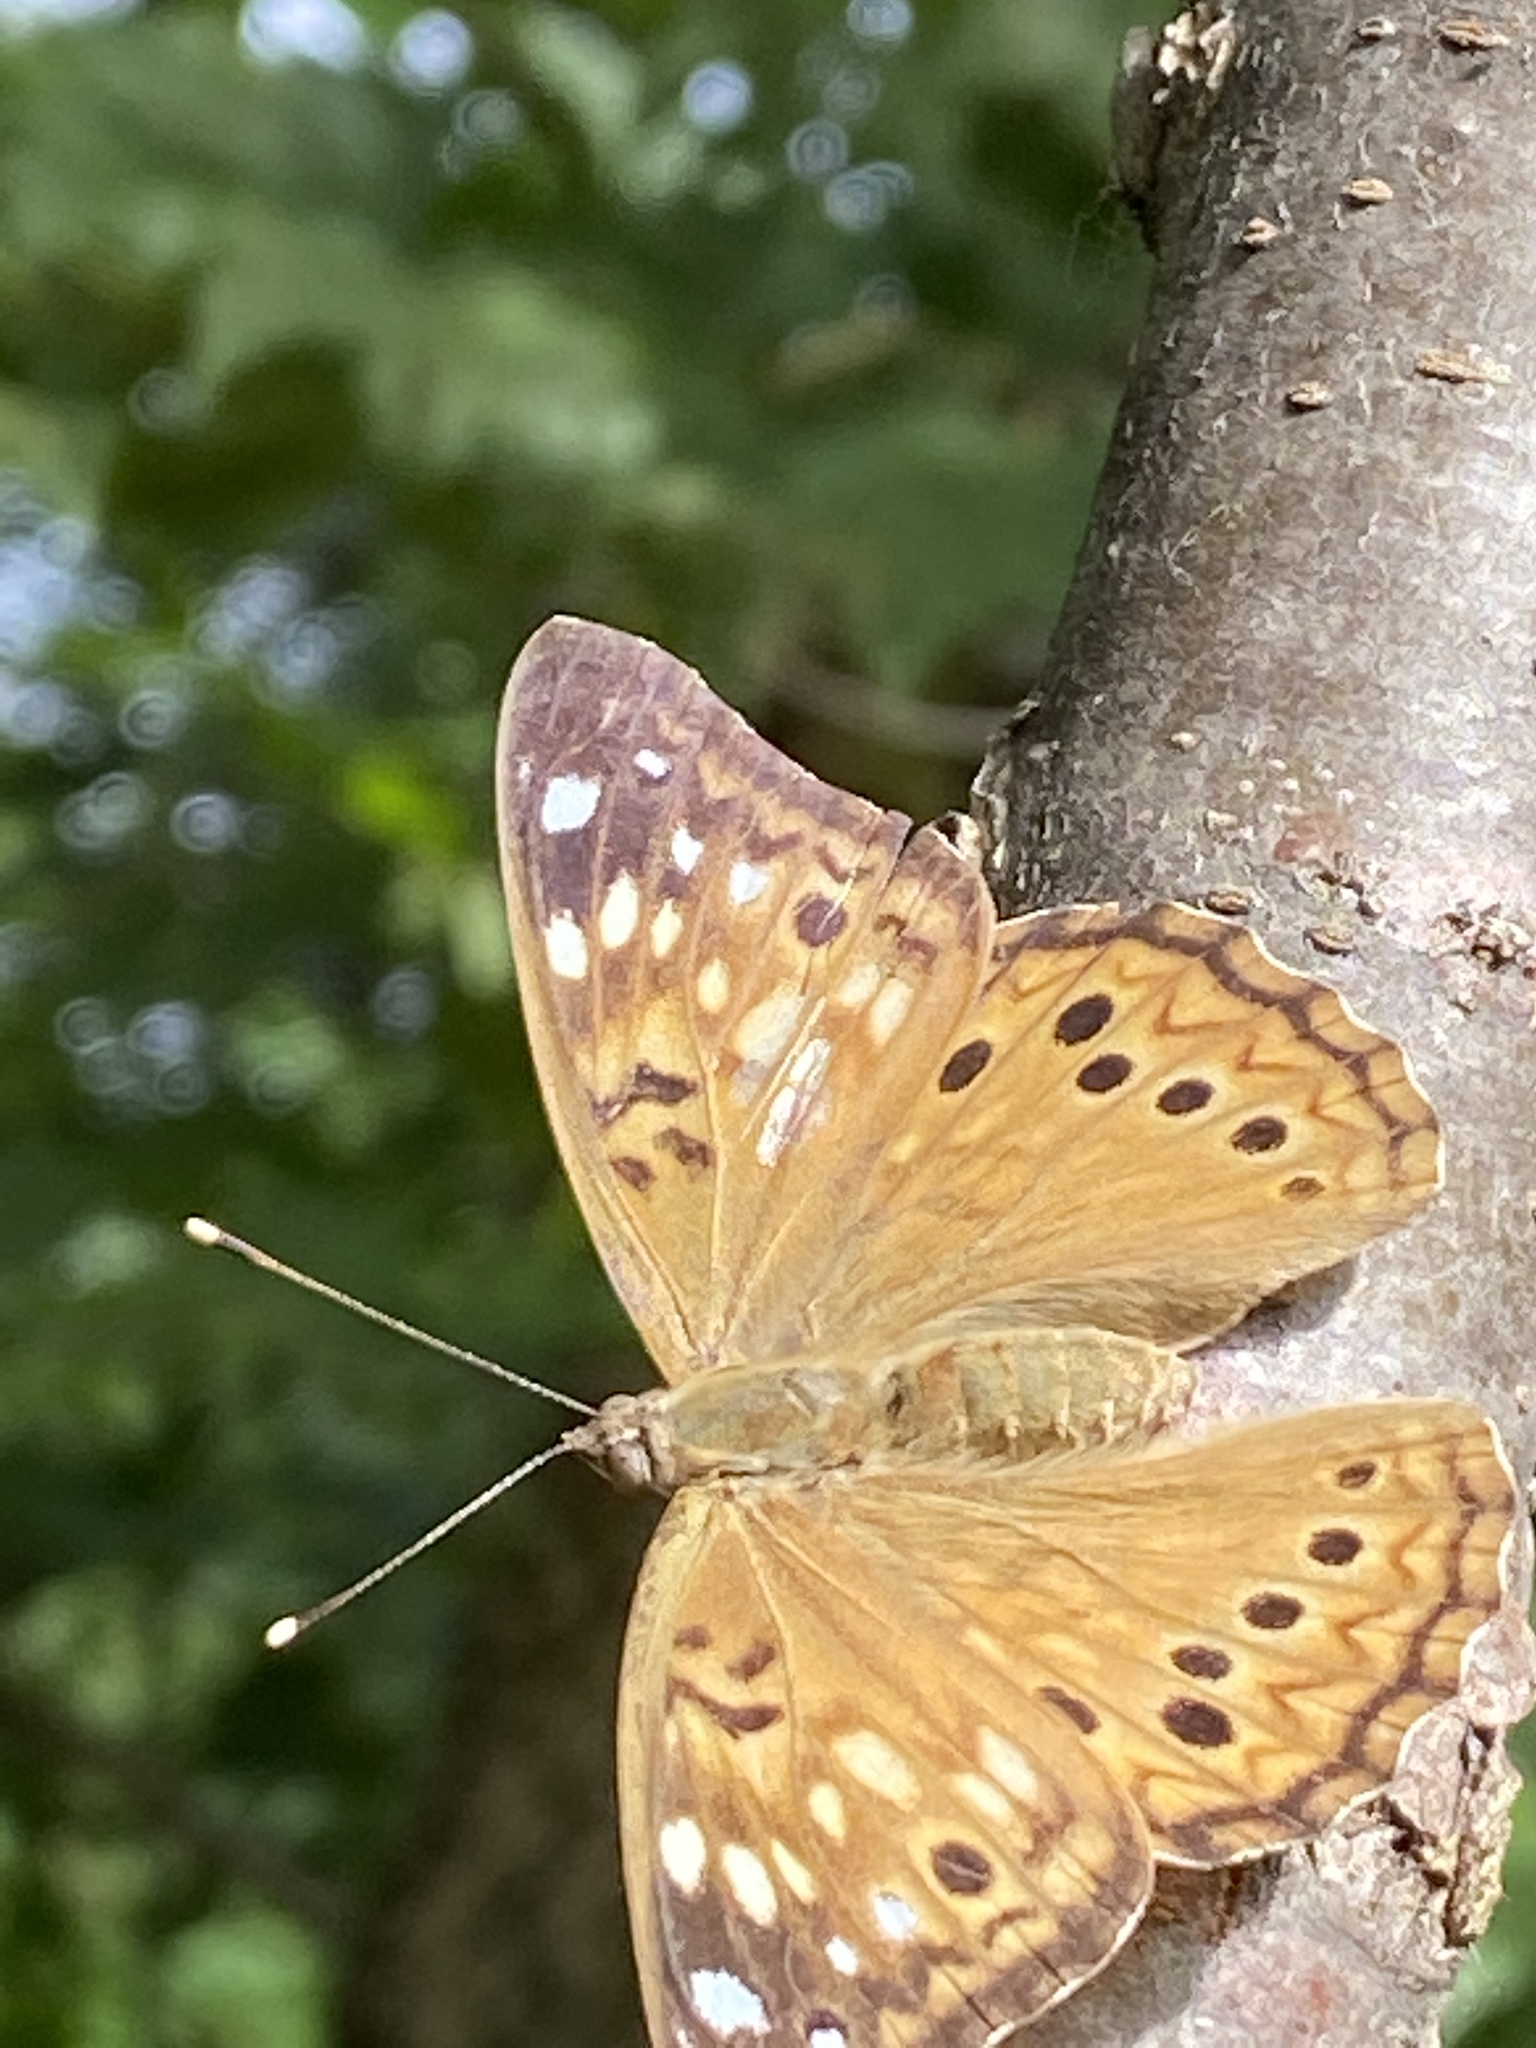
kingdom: Animalia
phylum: Arthropoda
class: Insecta
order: Lepidoptera
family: Nymphalidae
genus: Asterocampa
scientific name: Asterocampa celtis
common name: Hackberry emperor
